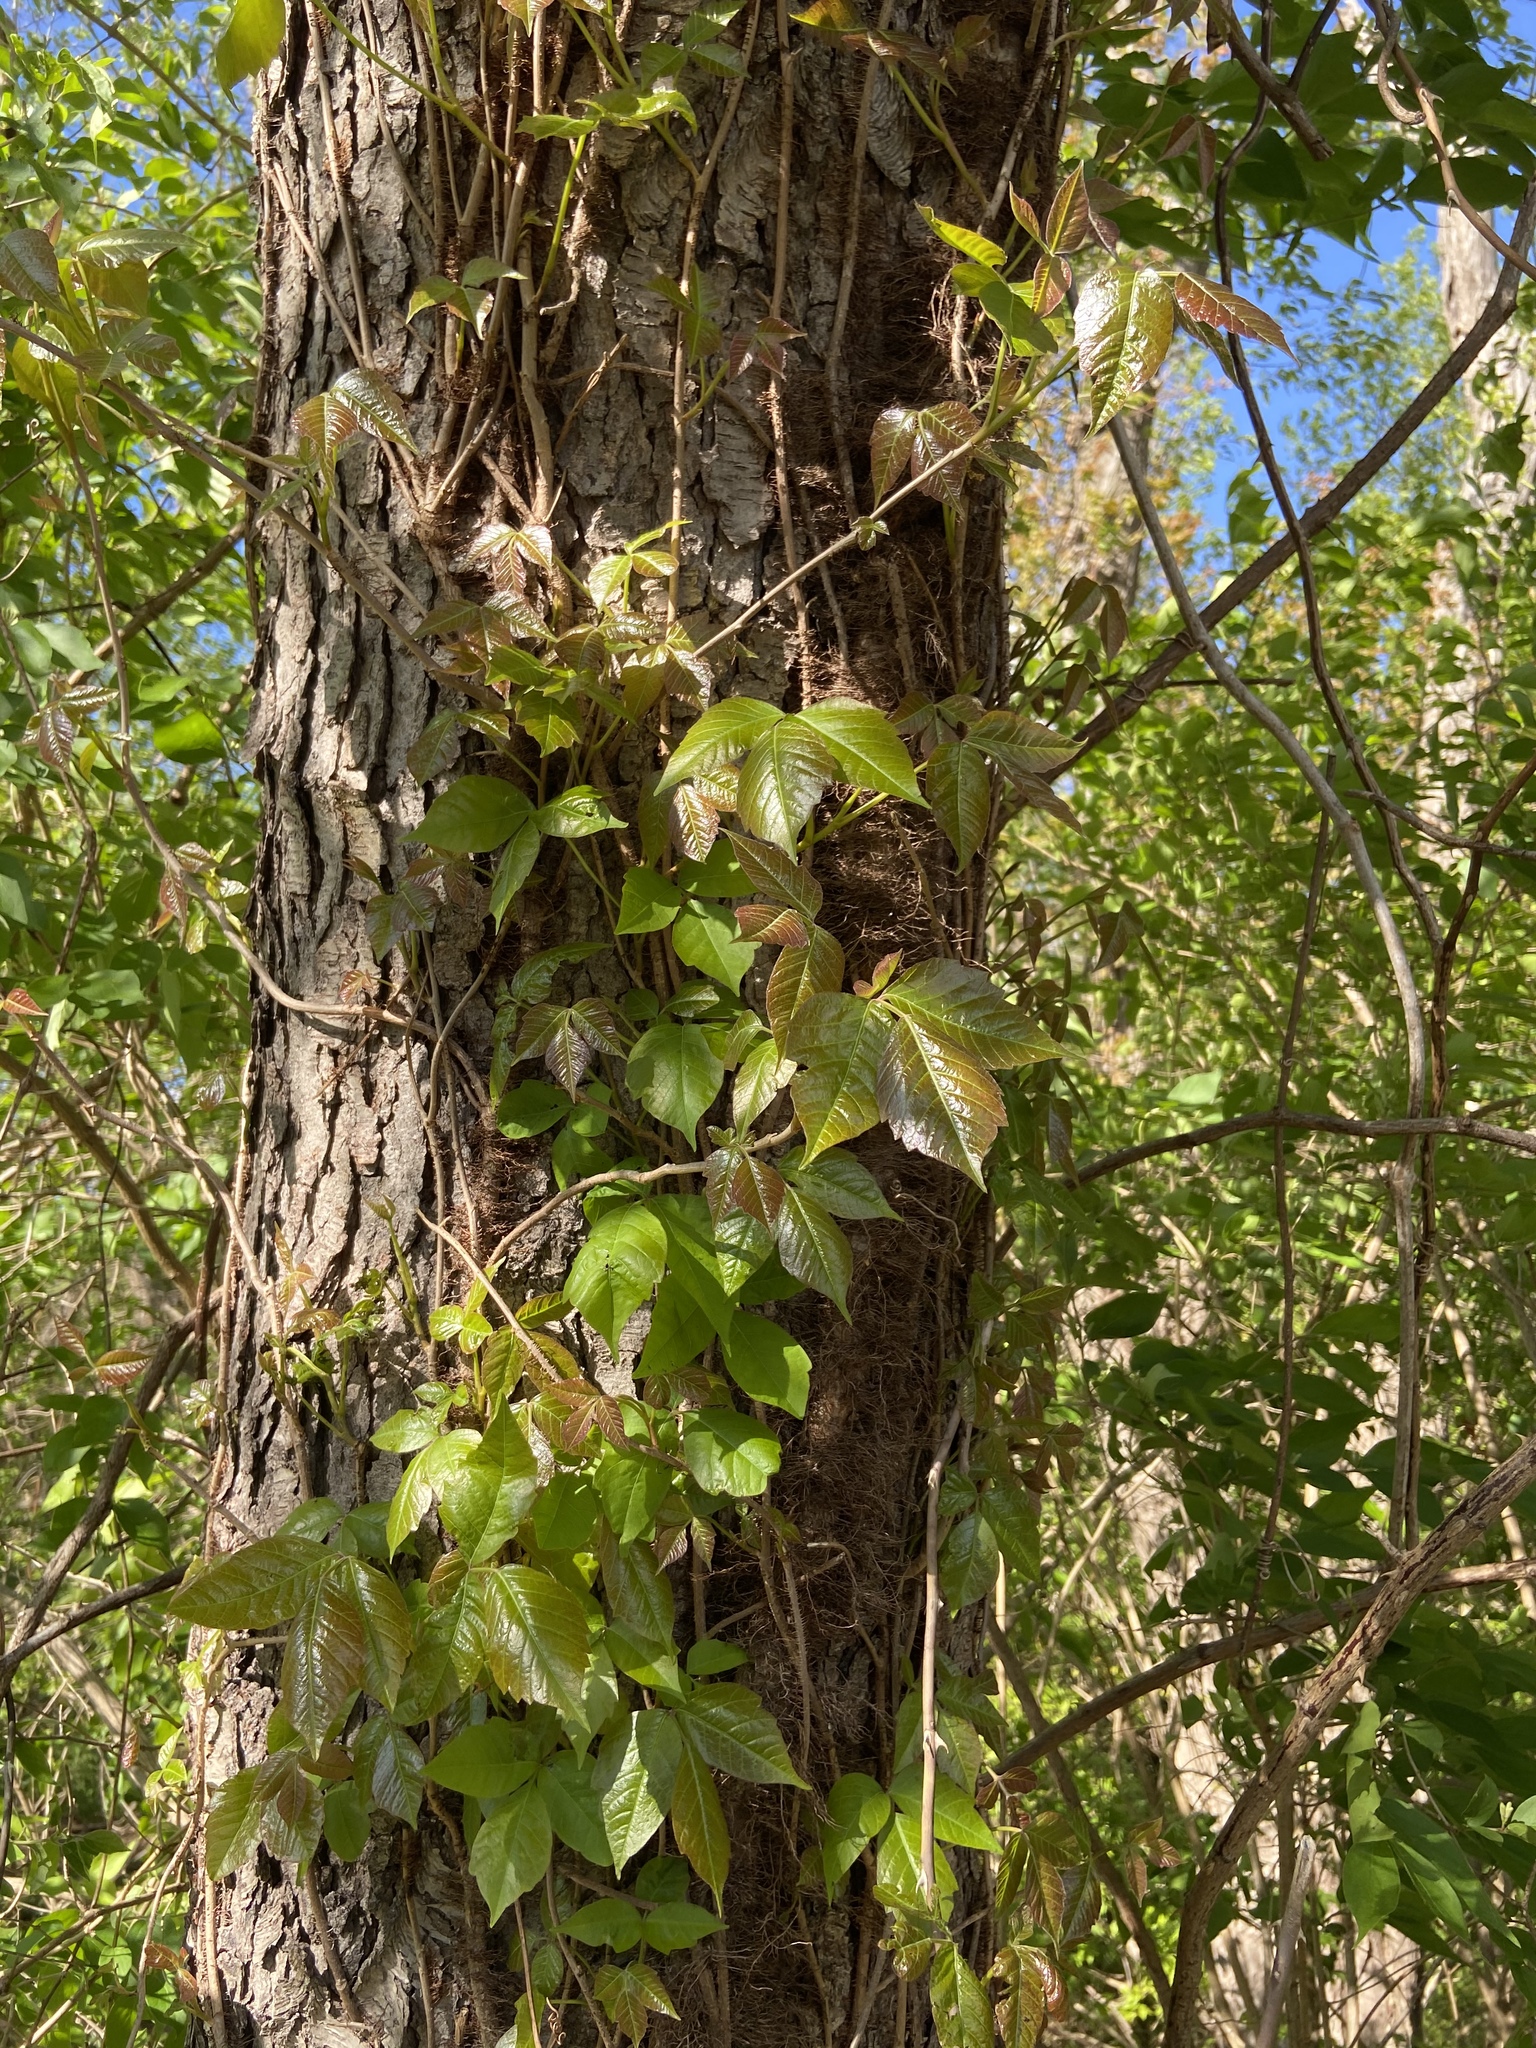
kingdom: Plantae
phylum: Tracheophyta
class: Magnoliopsida
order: Sapindales
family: Anacardiaceae
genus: Toxicodendron
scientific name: Toxicodendron radicans
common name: Poison ivy
